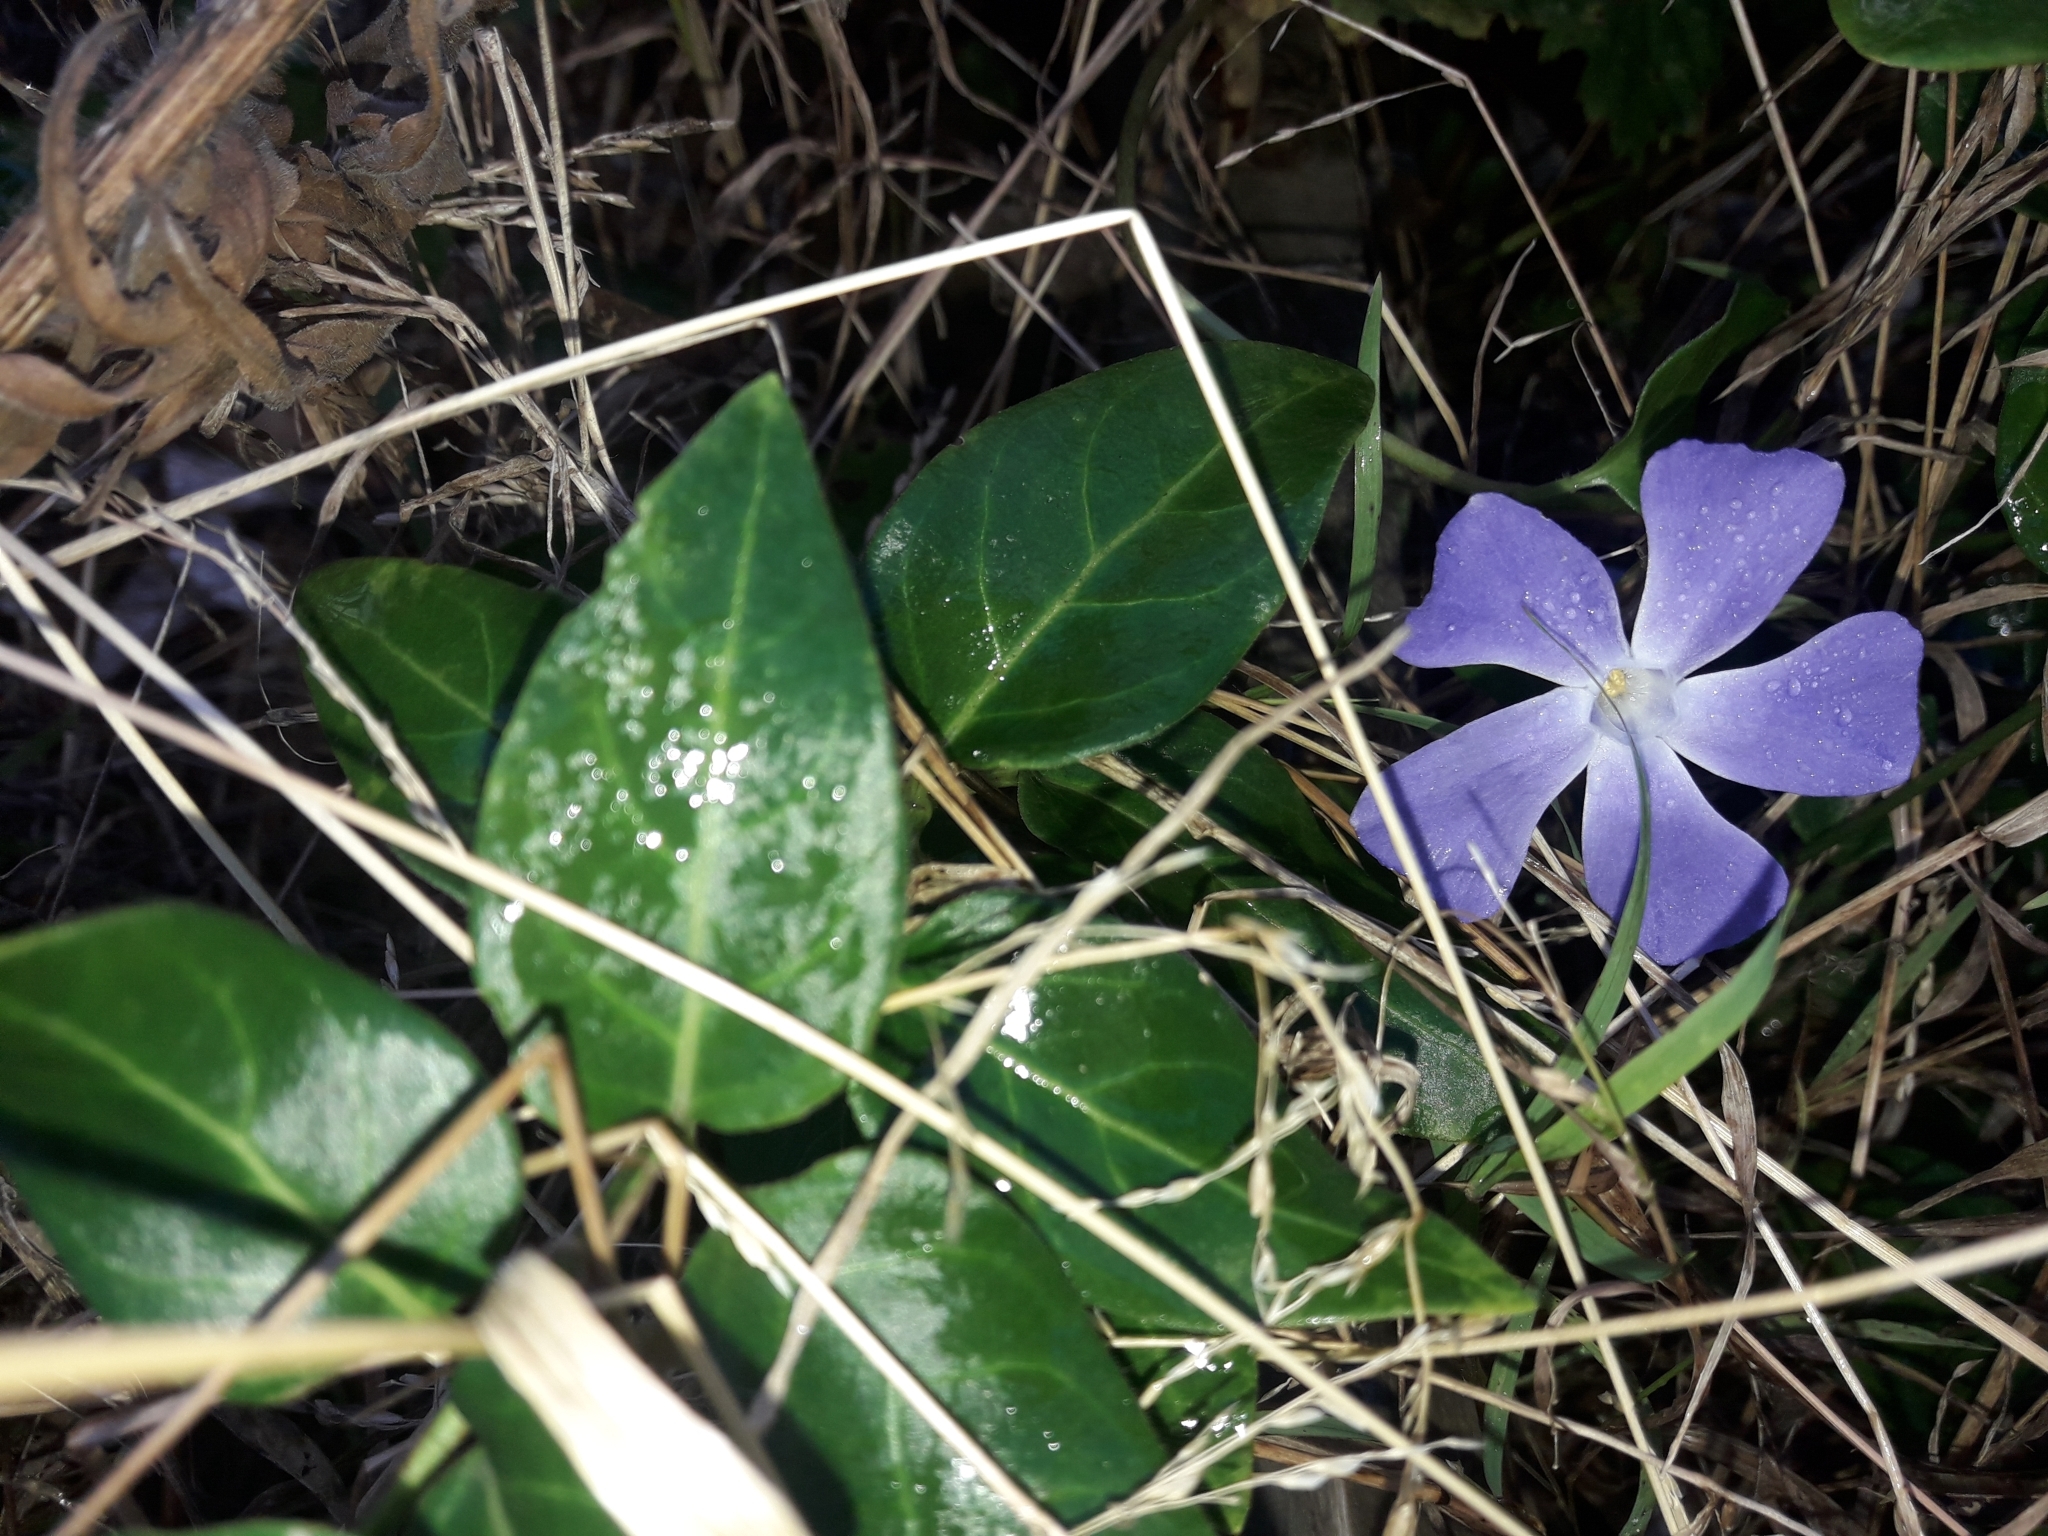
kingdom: Plantae
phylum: Tracheophyta
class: Magnoliopsida
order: Gentianales
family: Apocynaceae
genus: Vinca
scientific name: Vinca major
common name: Greater periwinkle
